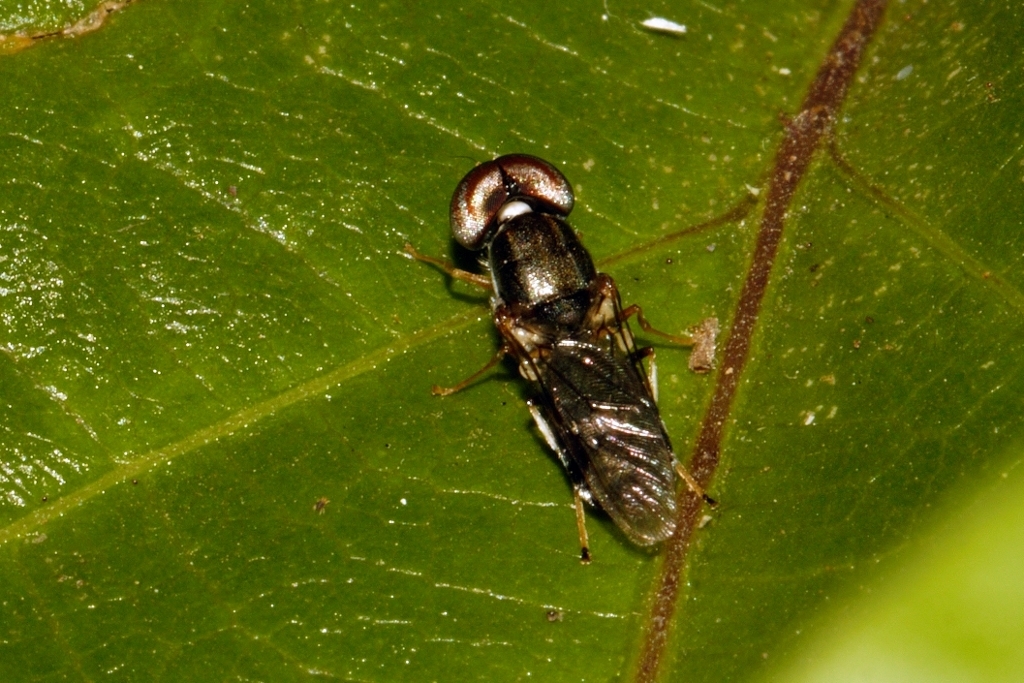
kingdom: Animalia
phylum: Arthropoda
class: Insecta
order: Diptera
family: Stratiomyidae
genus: Cephalochrysa
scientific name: Cephalochrysa calopa
